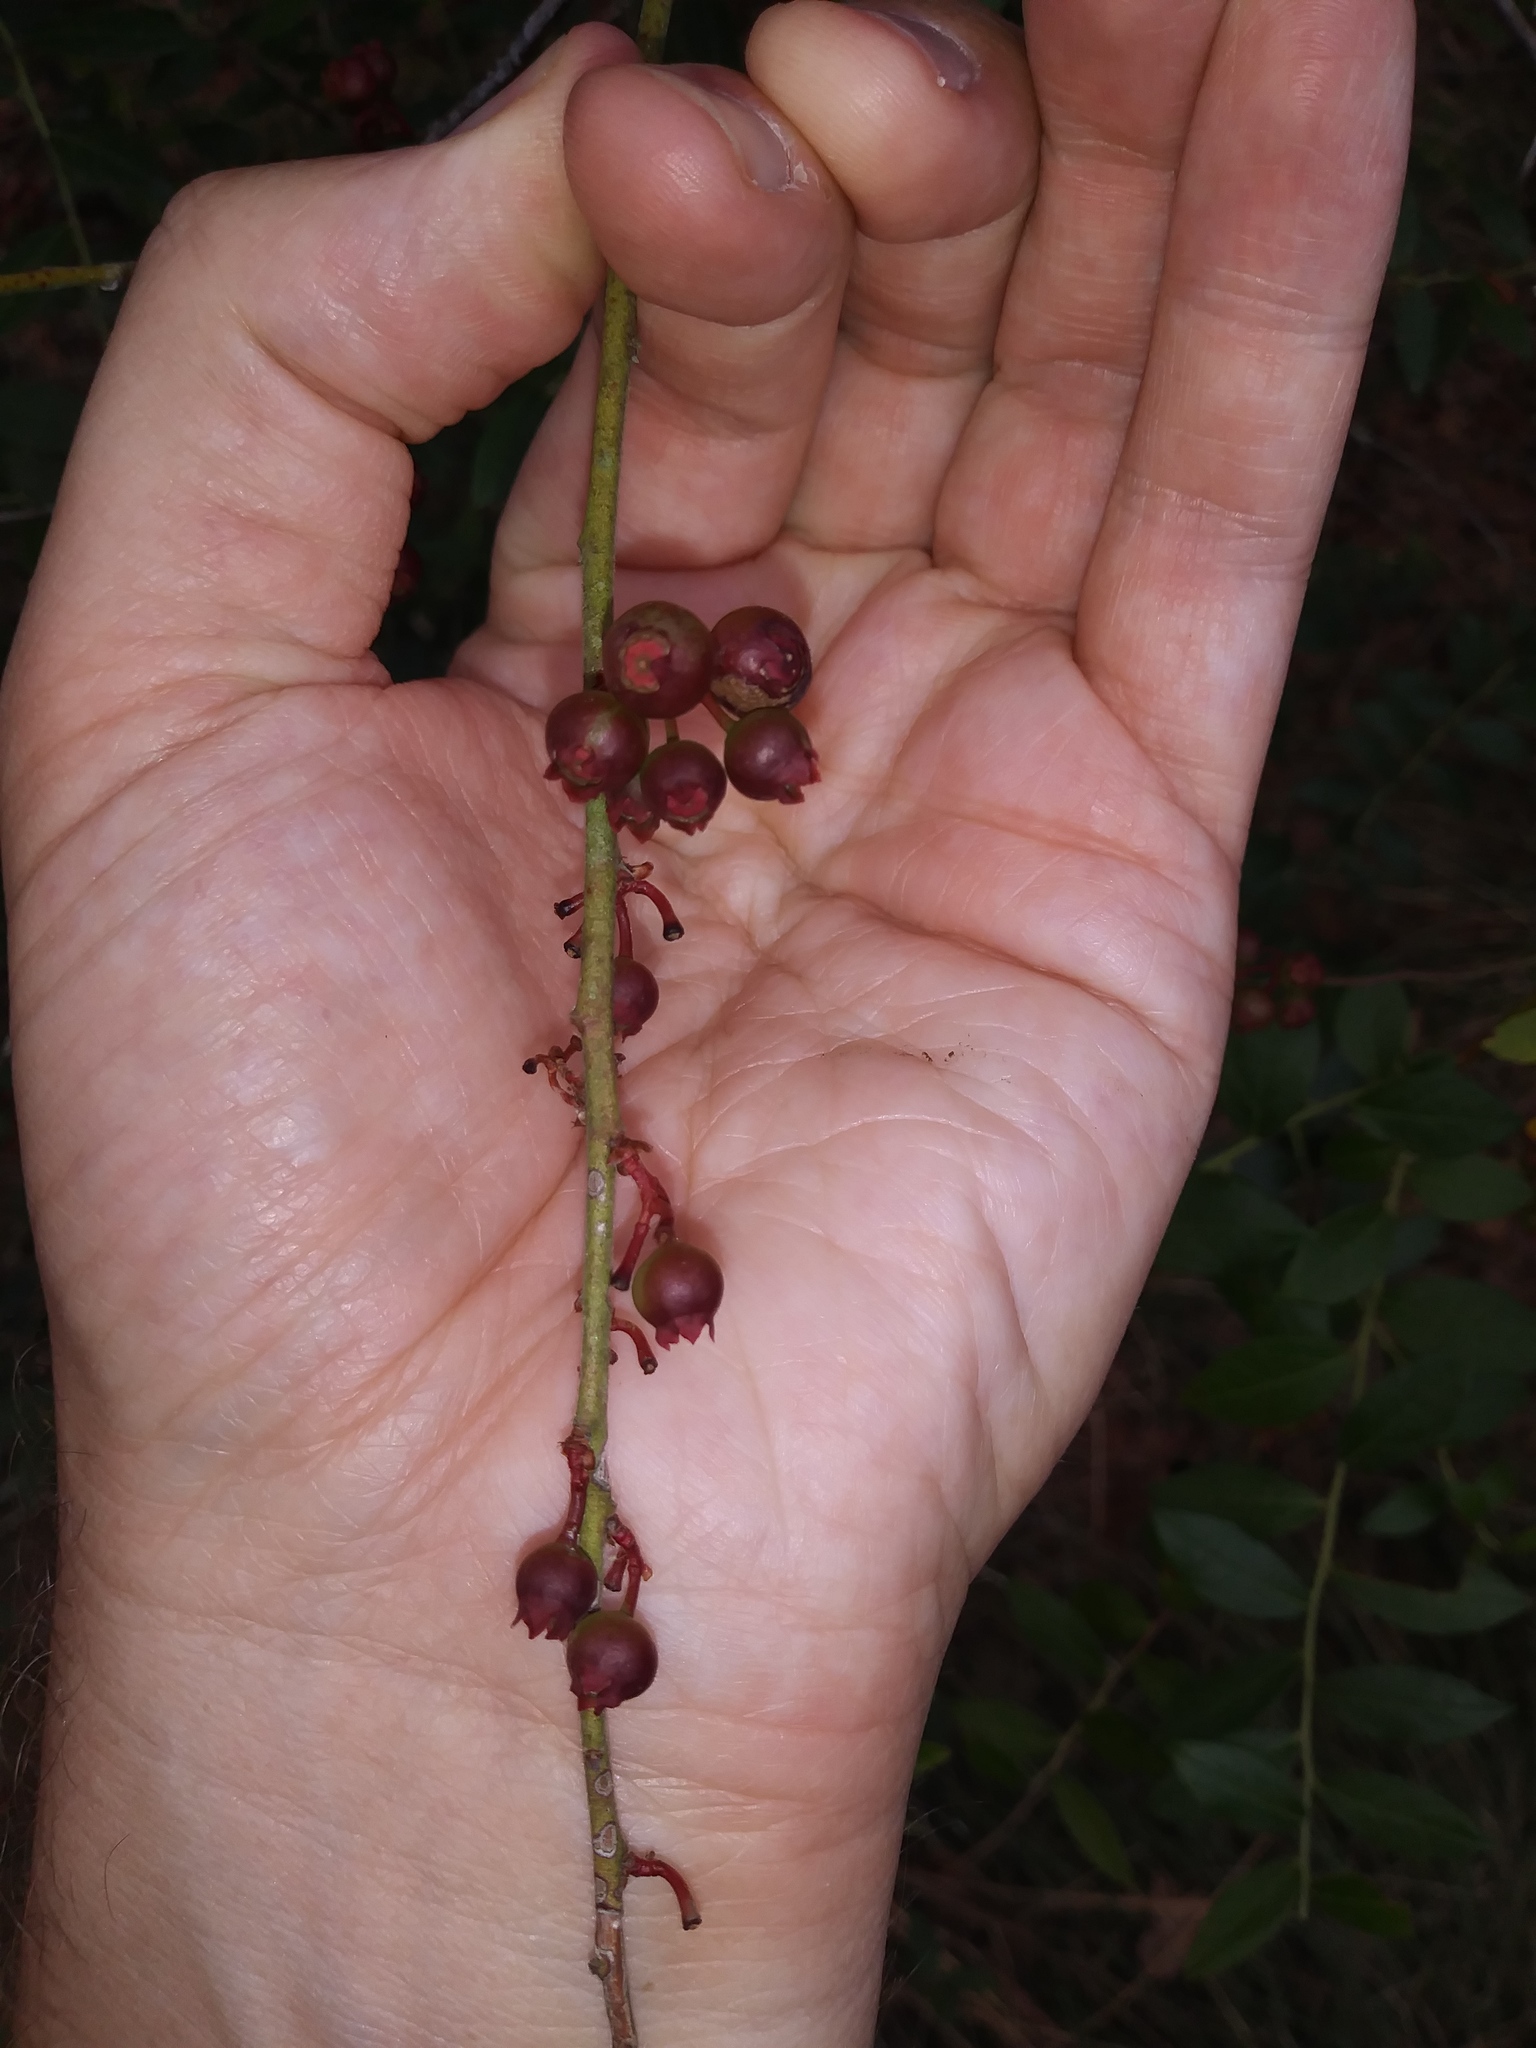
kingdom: Plantae
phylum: Tracheophyta
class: Magnoliopsida
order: Ericales
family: Ericaceae
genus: Vaccinium
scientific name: Vaccinium corymbosum
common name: Blueberry
